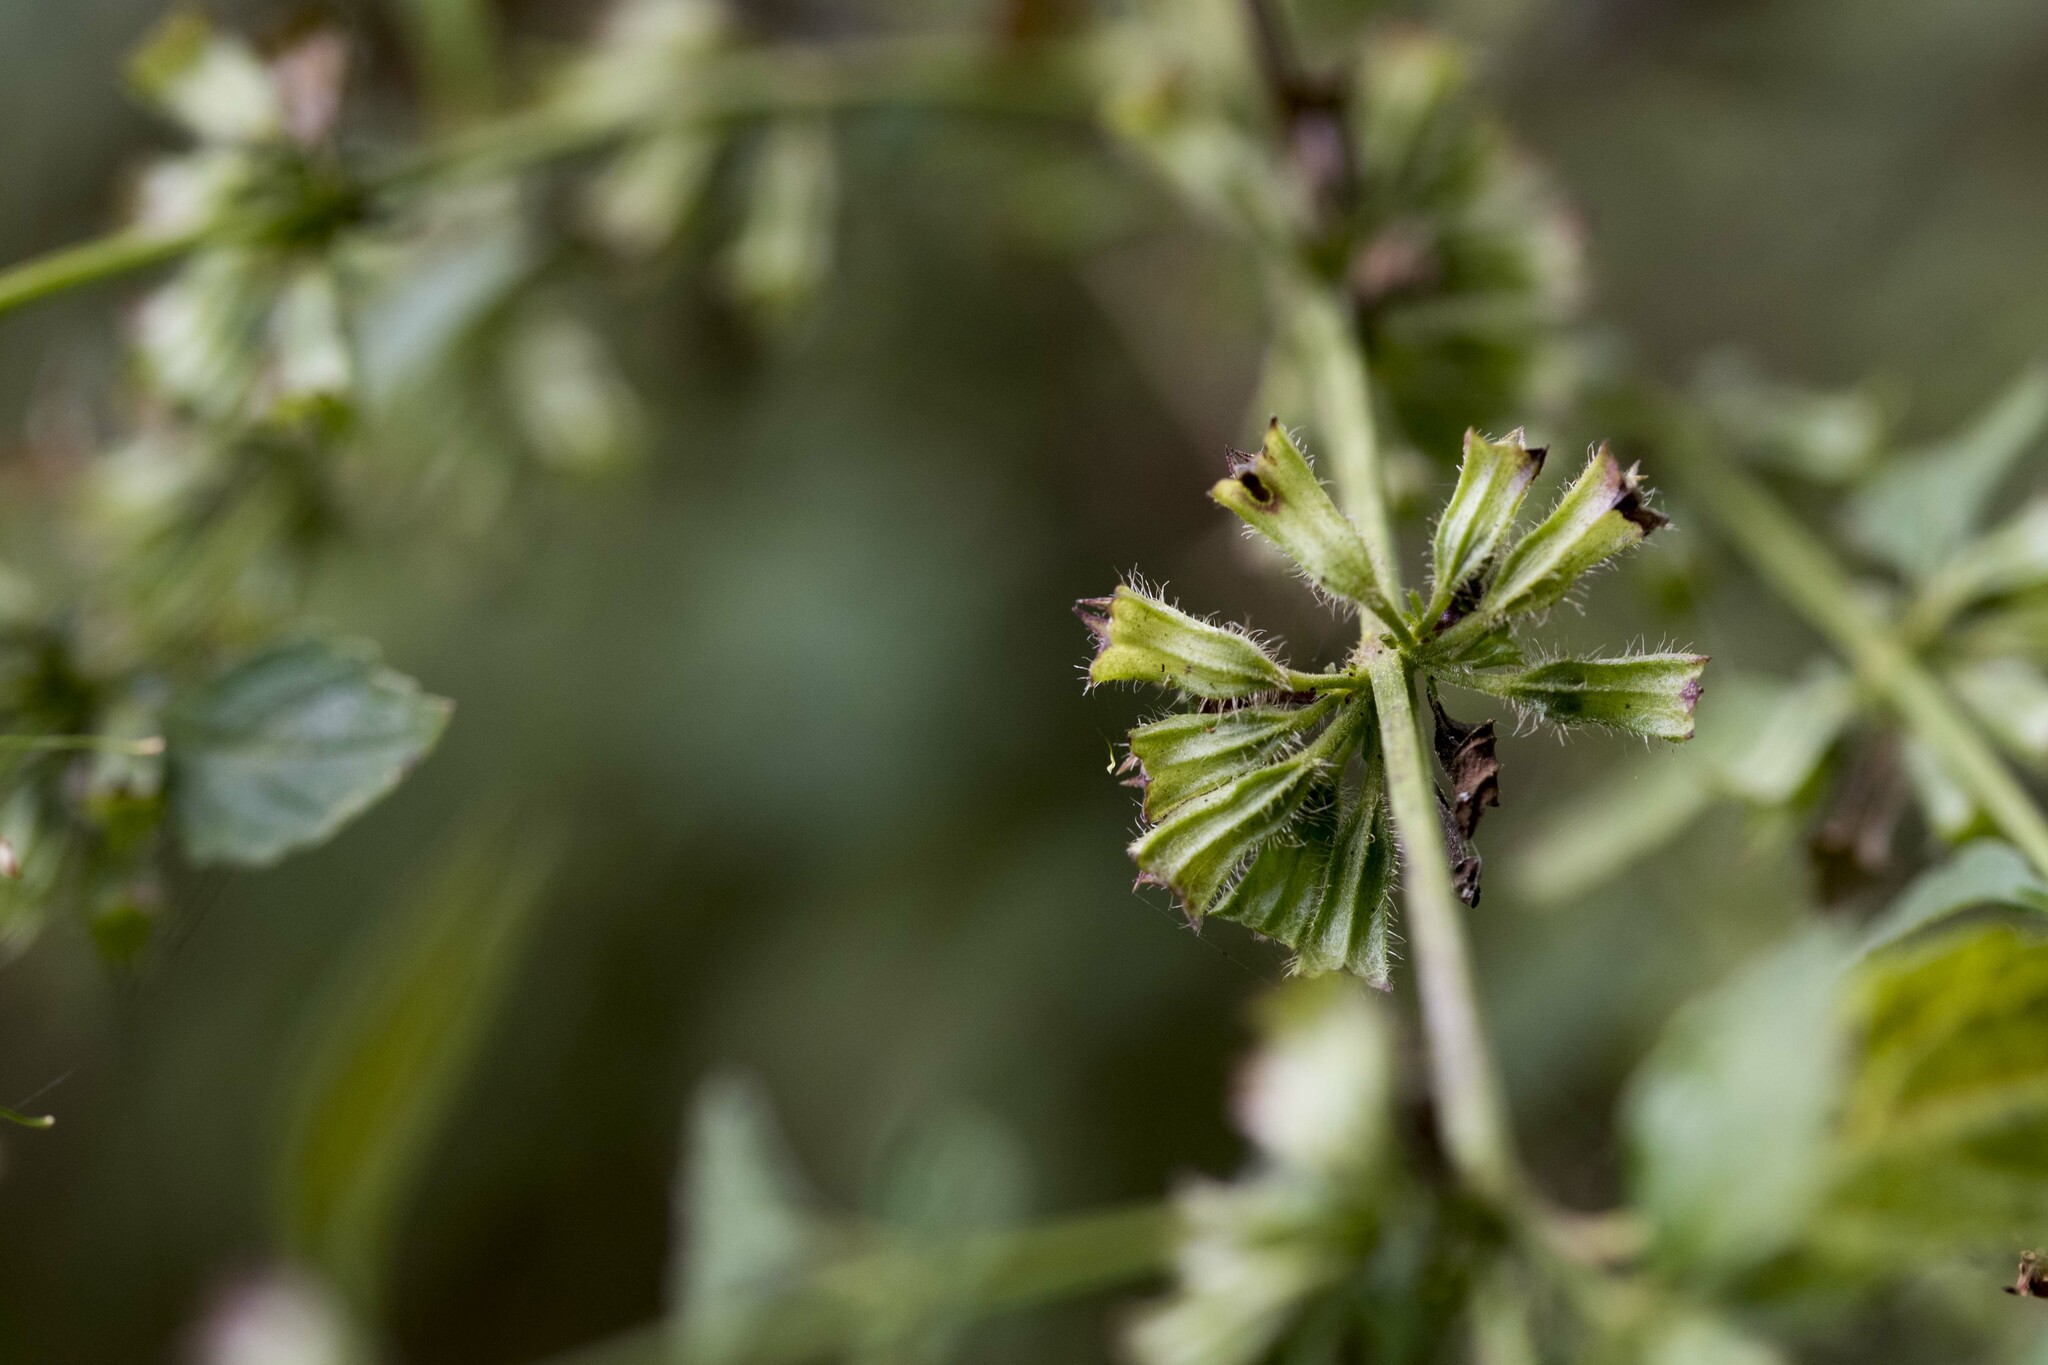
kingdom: Plantae
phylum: Tracheophyta
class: Magnoliopsida
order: Lamiales
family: Lamiaceae
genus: Melissa
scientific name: Melissa axillaris
